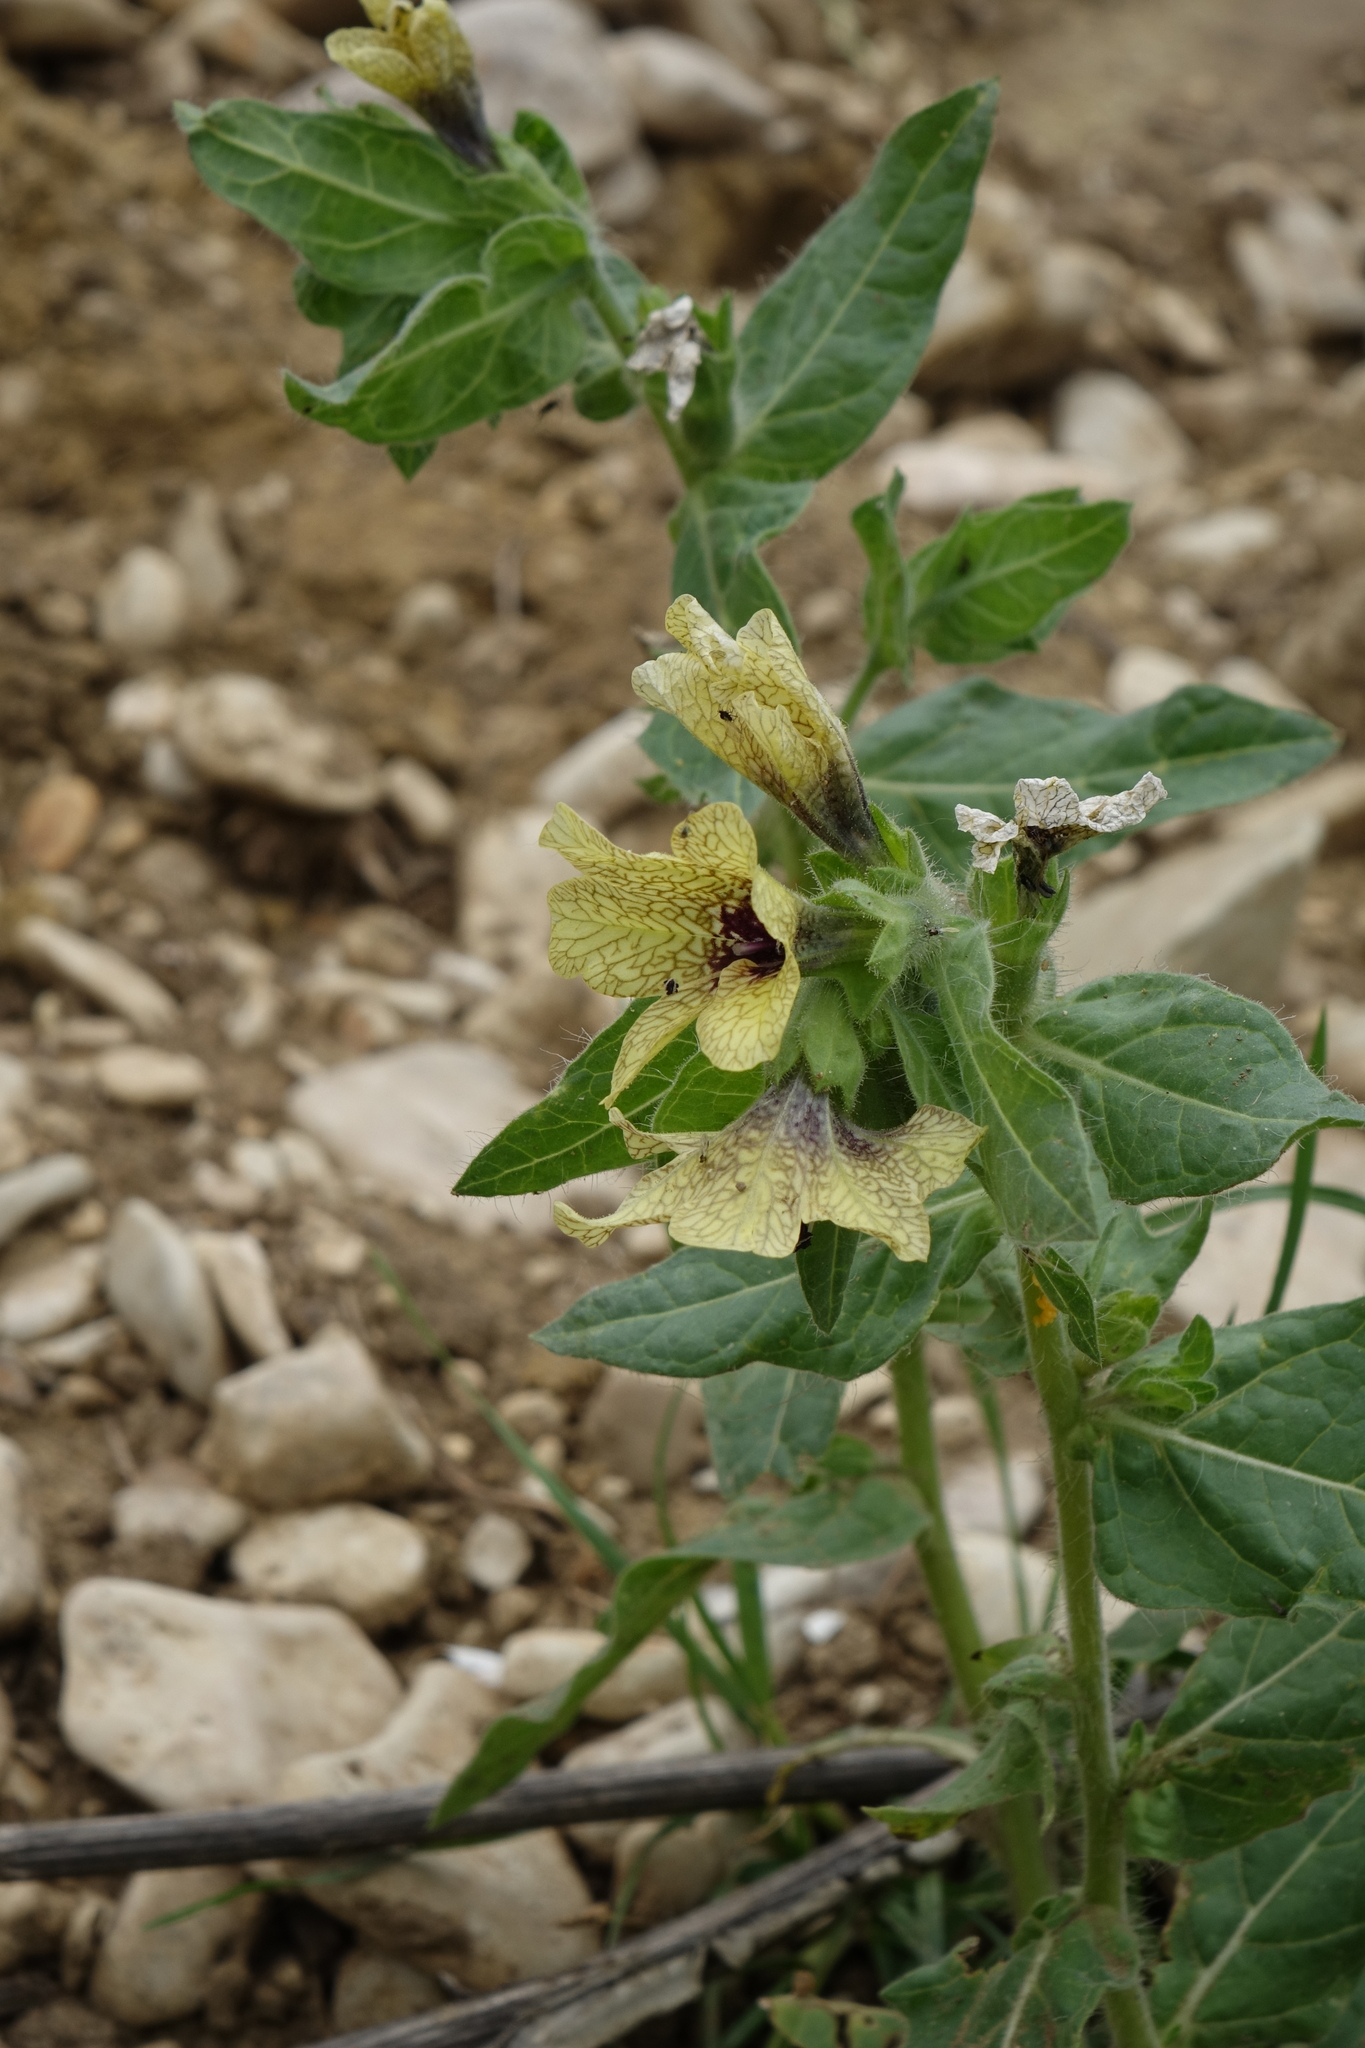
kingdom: Plantae
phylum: Tracheophyta
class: Magnoliopsida
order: Solanales
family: Solanaceae
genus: Hyoscyamus
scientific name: Hyoscyamus niger
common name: Henbane
